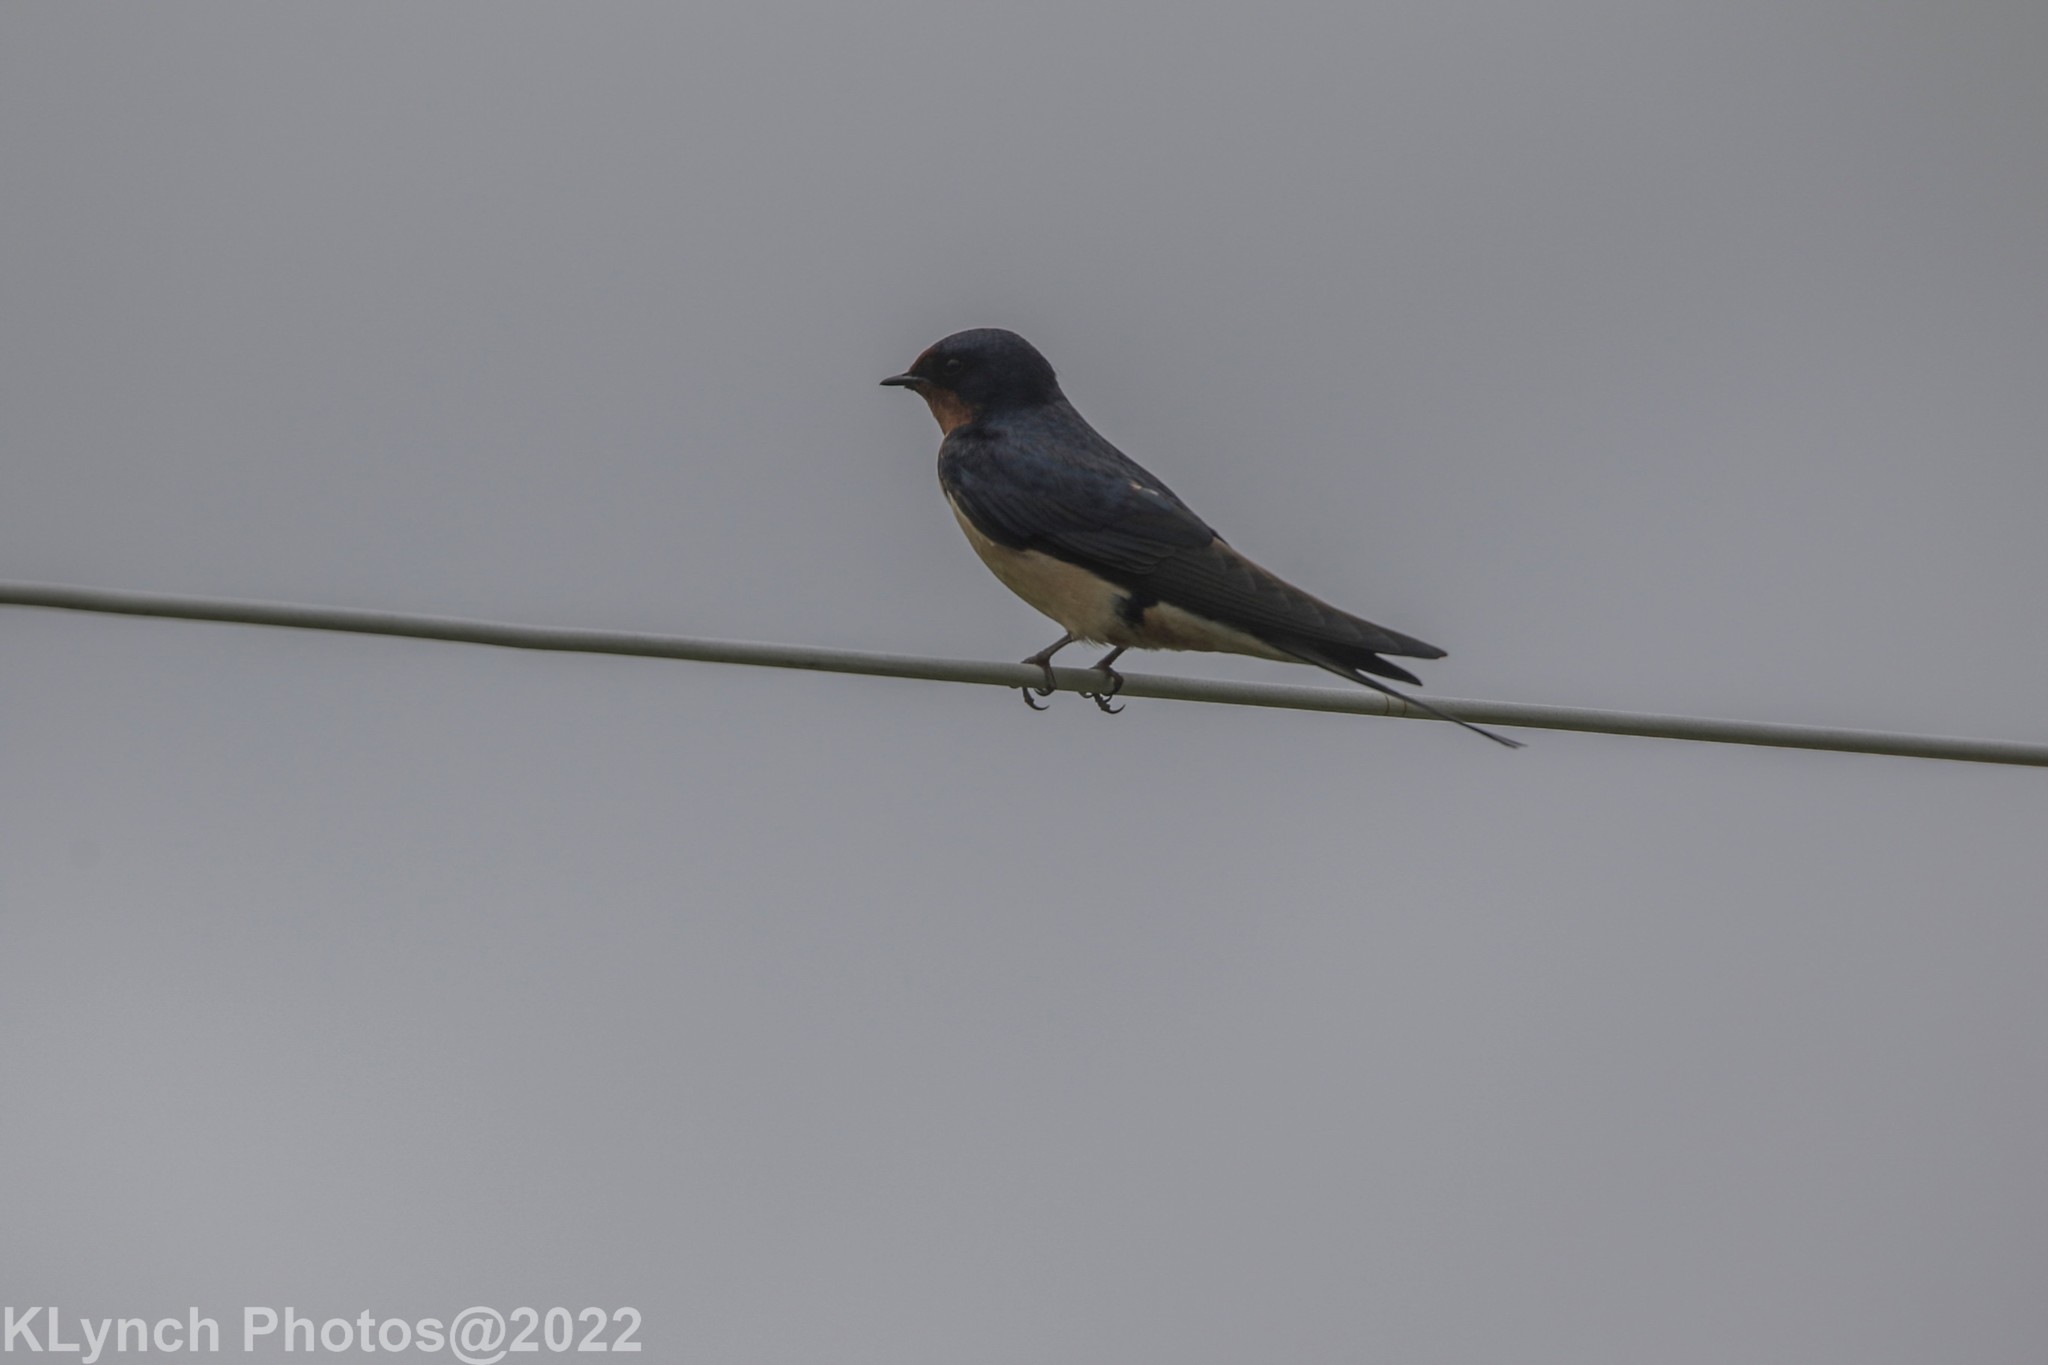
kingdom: Animalia
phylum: Chordata
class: Aves
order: Passeriformes
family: Hirundinidae
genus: Hirundo
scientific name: Hirundo rustica
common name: Barn swallow
